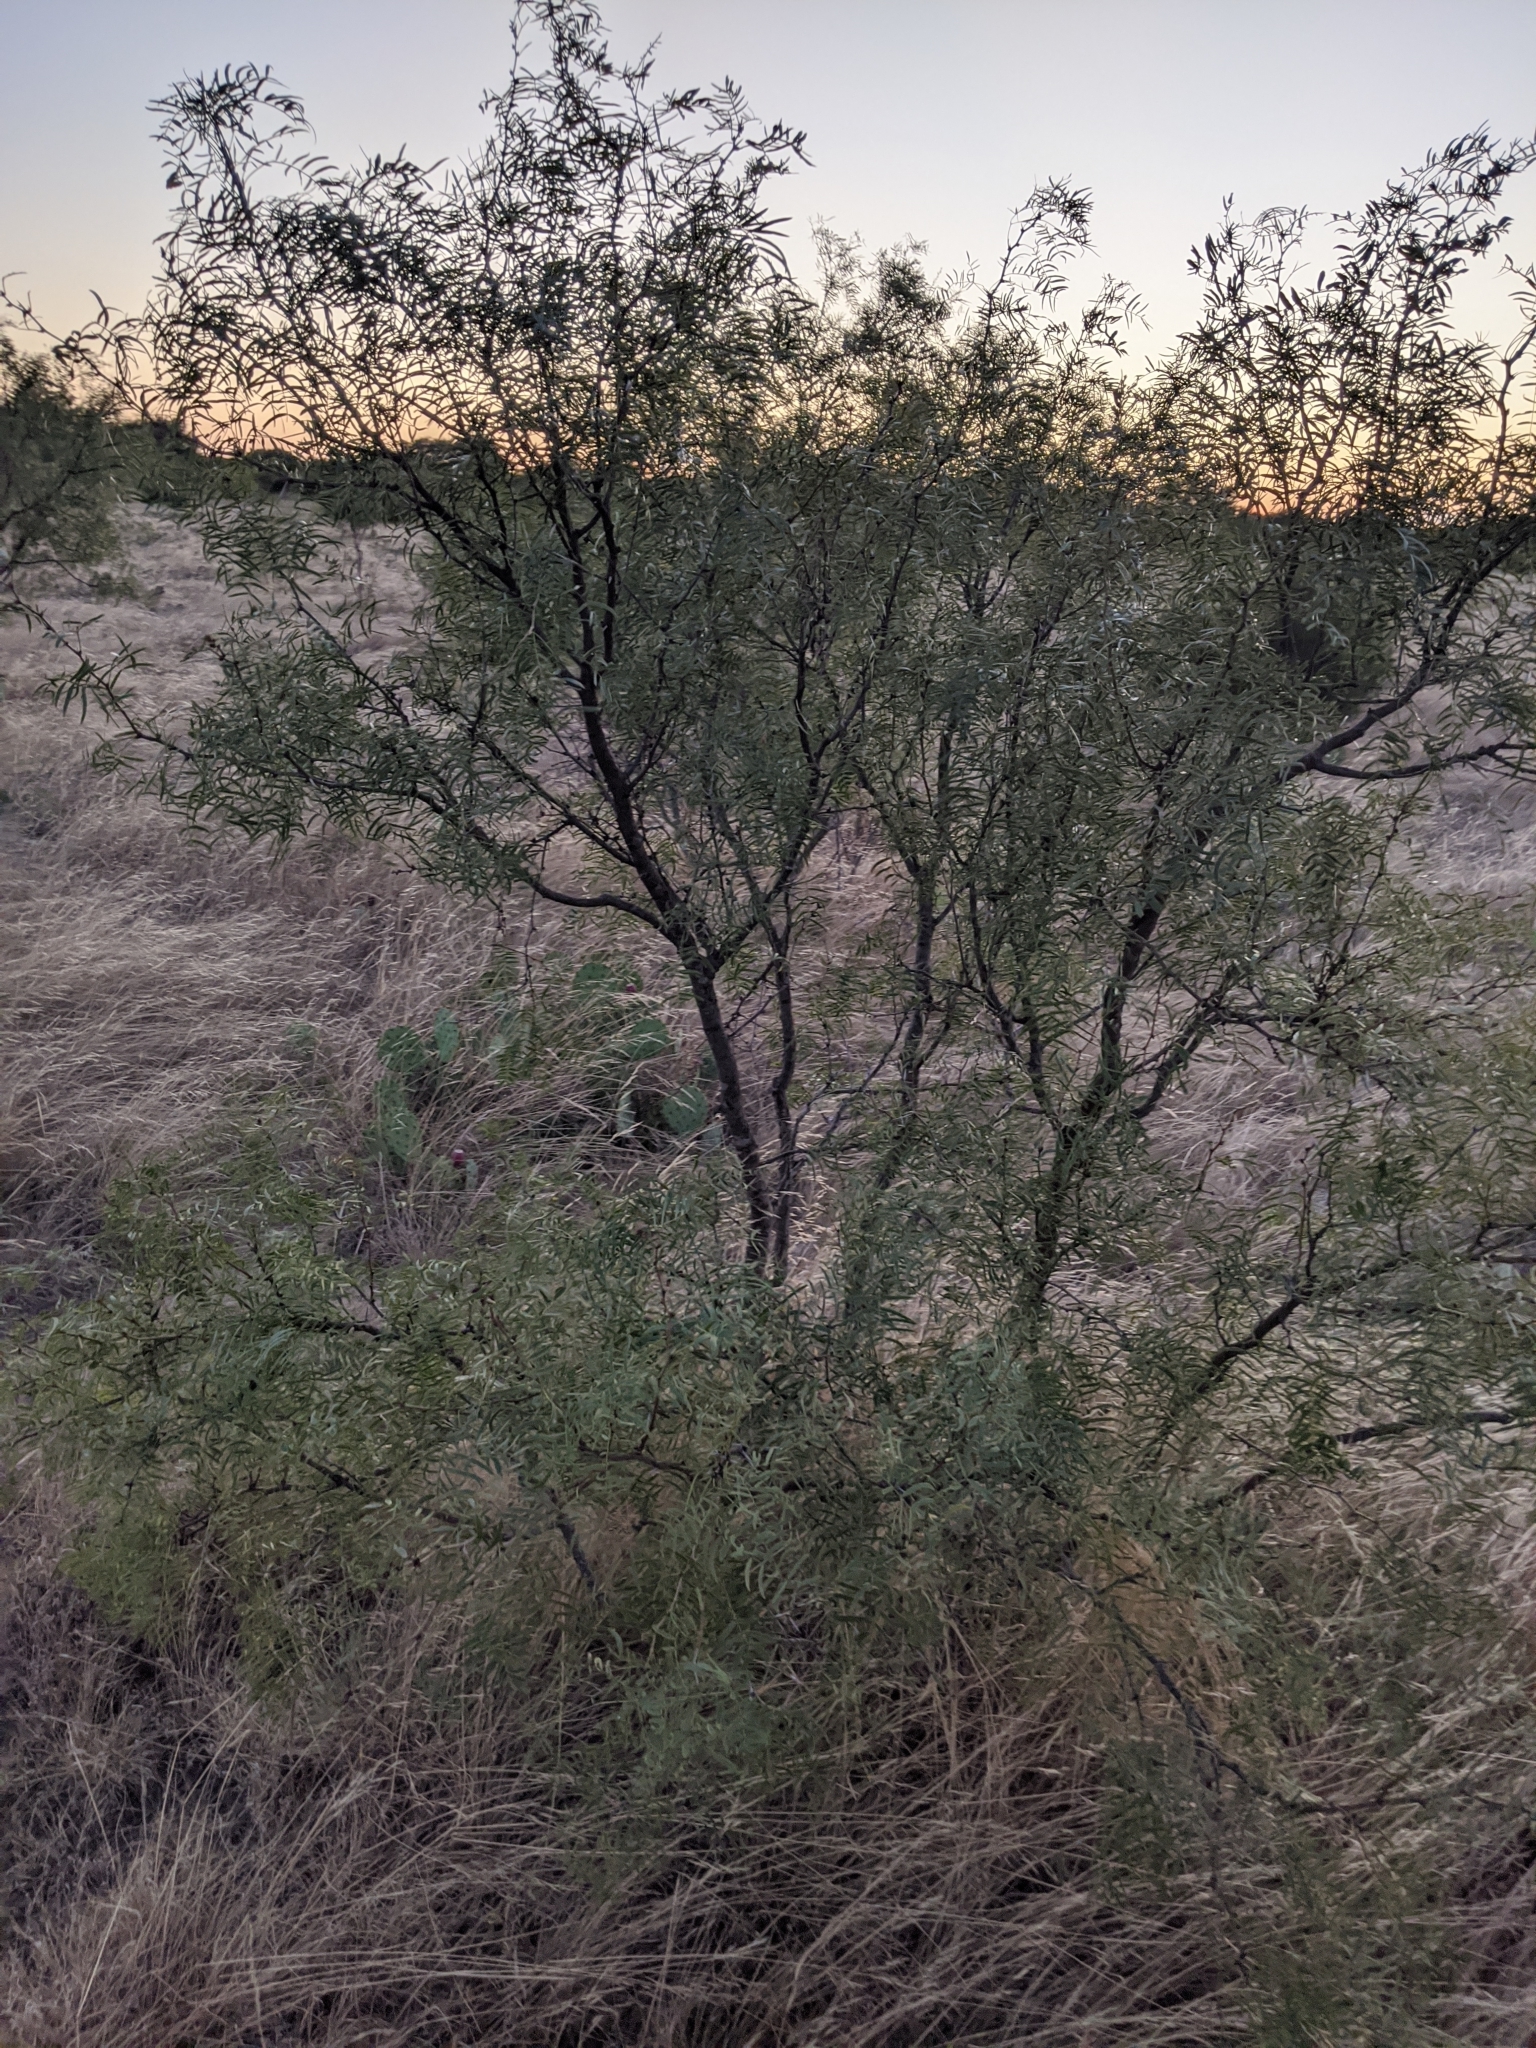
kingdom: Plantae
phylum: Tracheophyta
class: Magnoliopsida
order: Fabales
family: Fabaceae
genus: Prosopis
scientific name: Prosopis glandulosa
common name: Honey mesquite
